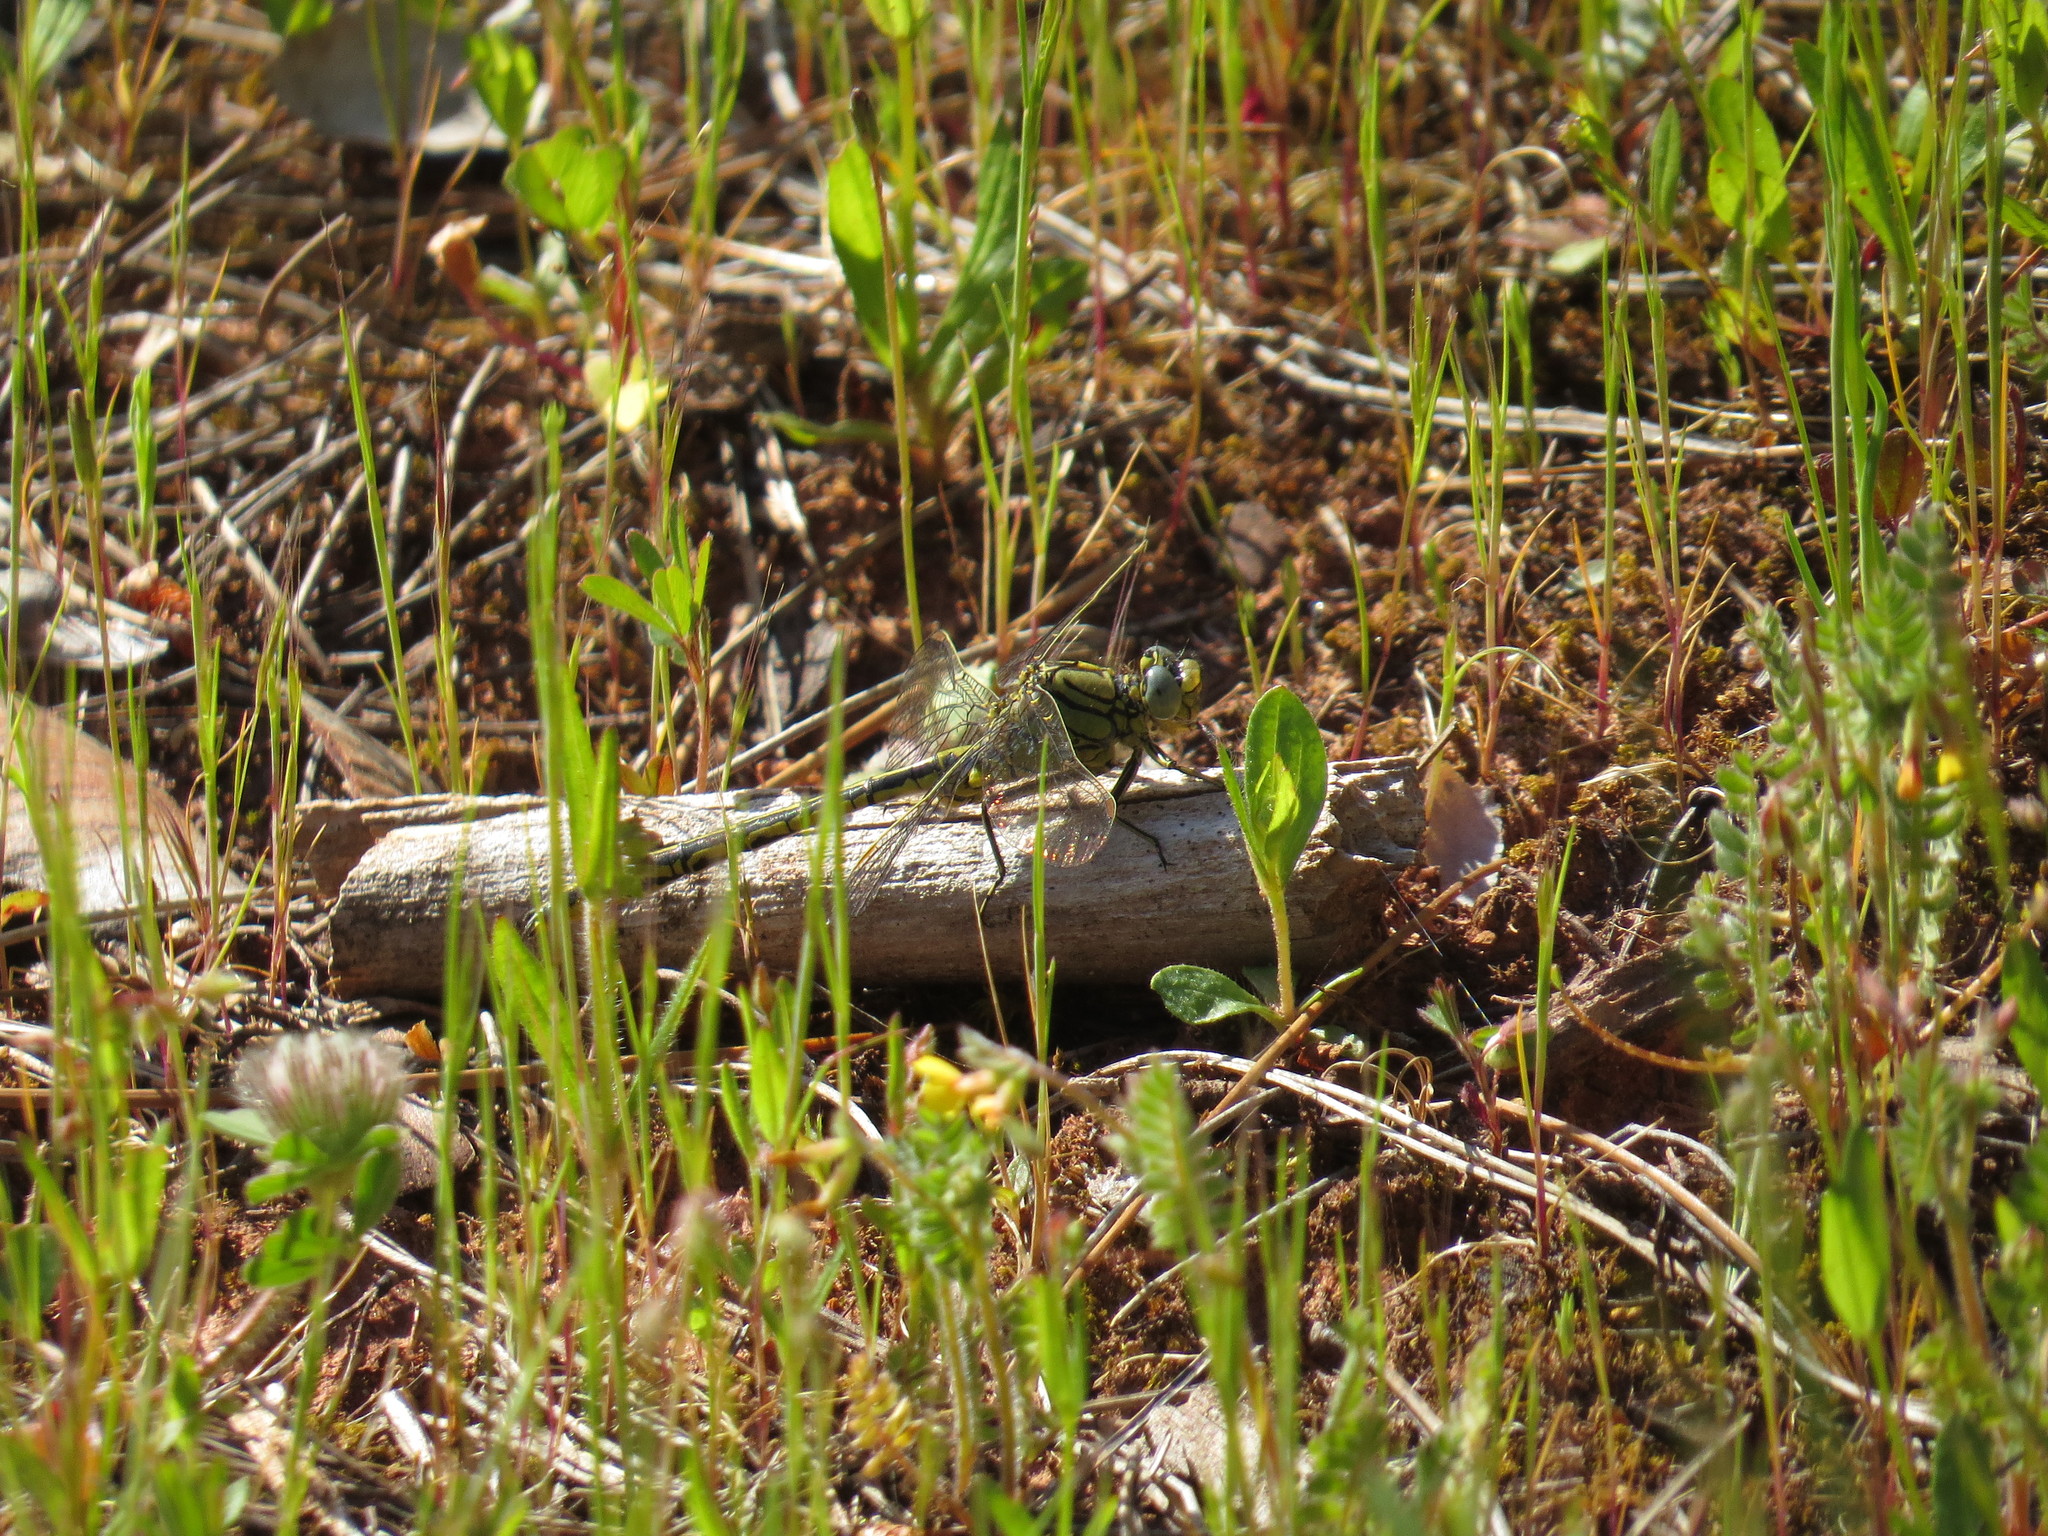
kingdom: Animalia
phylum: Arthropoda
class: Insecta
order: Odonata
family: Gomphidae
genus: Gomphus
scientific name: Gomphus pulchellus
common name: Western clubtail
